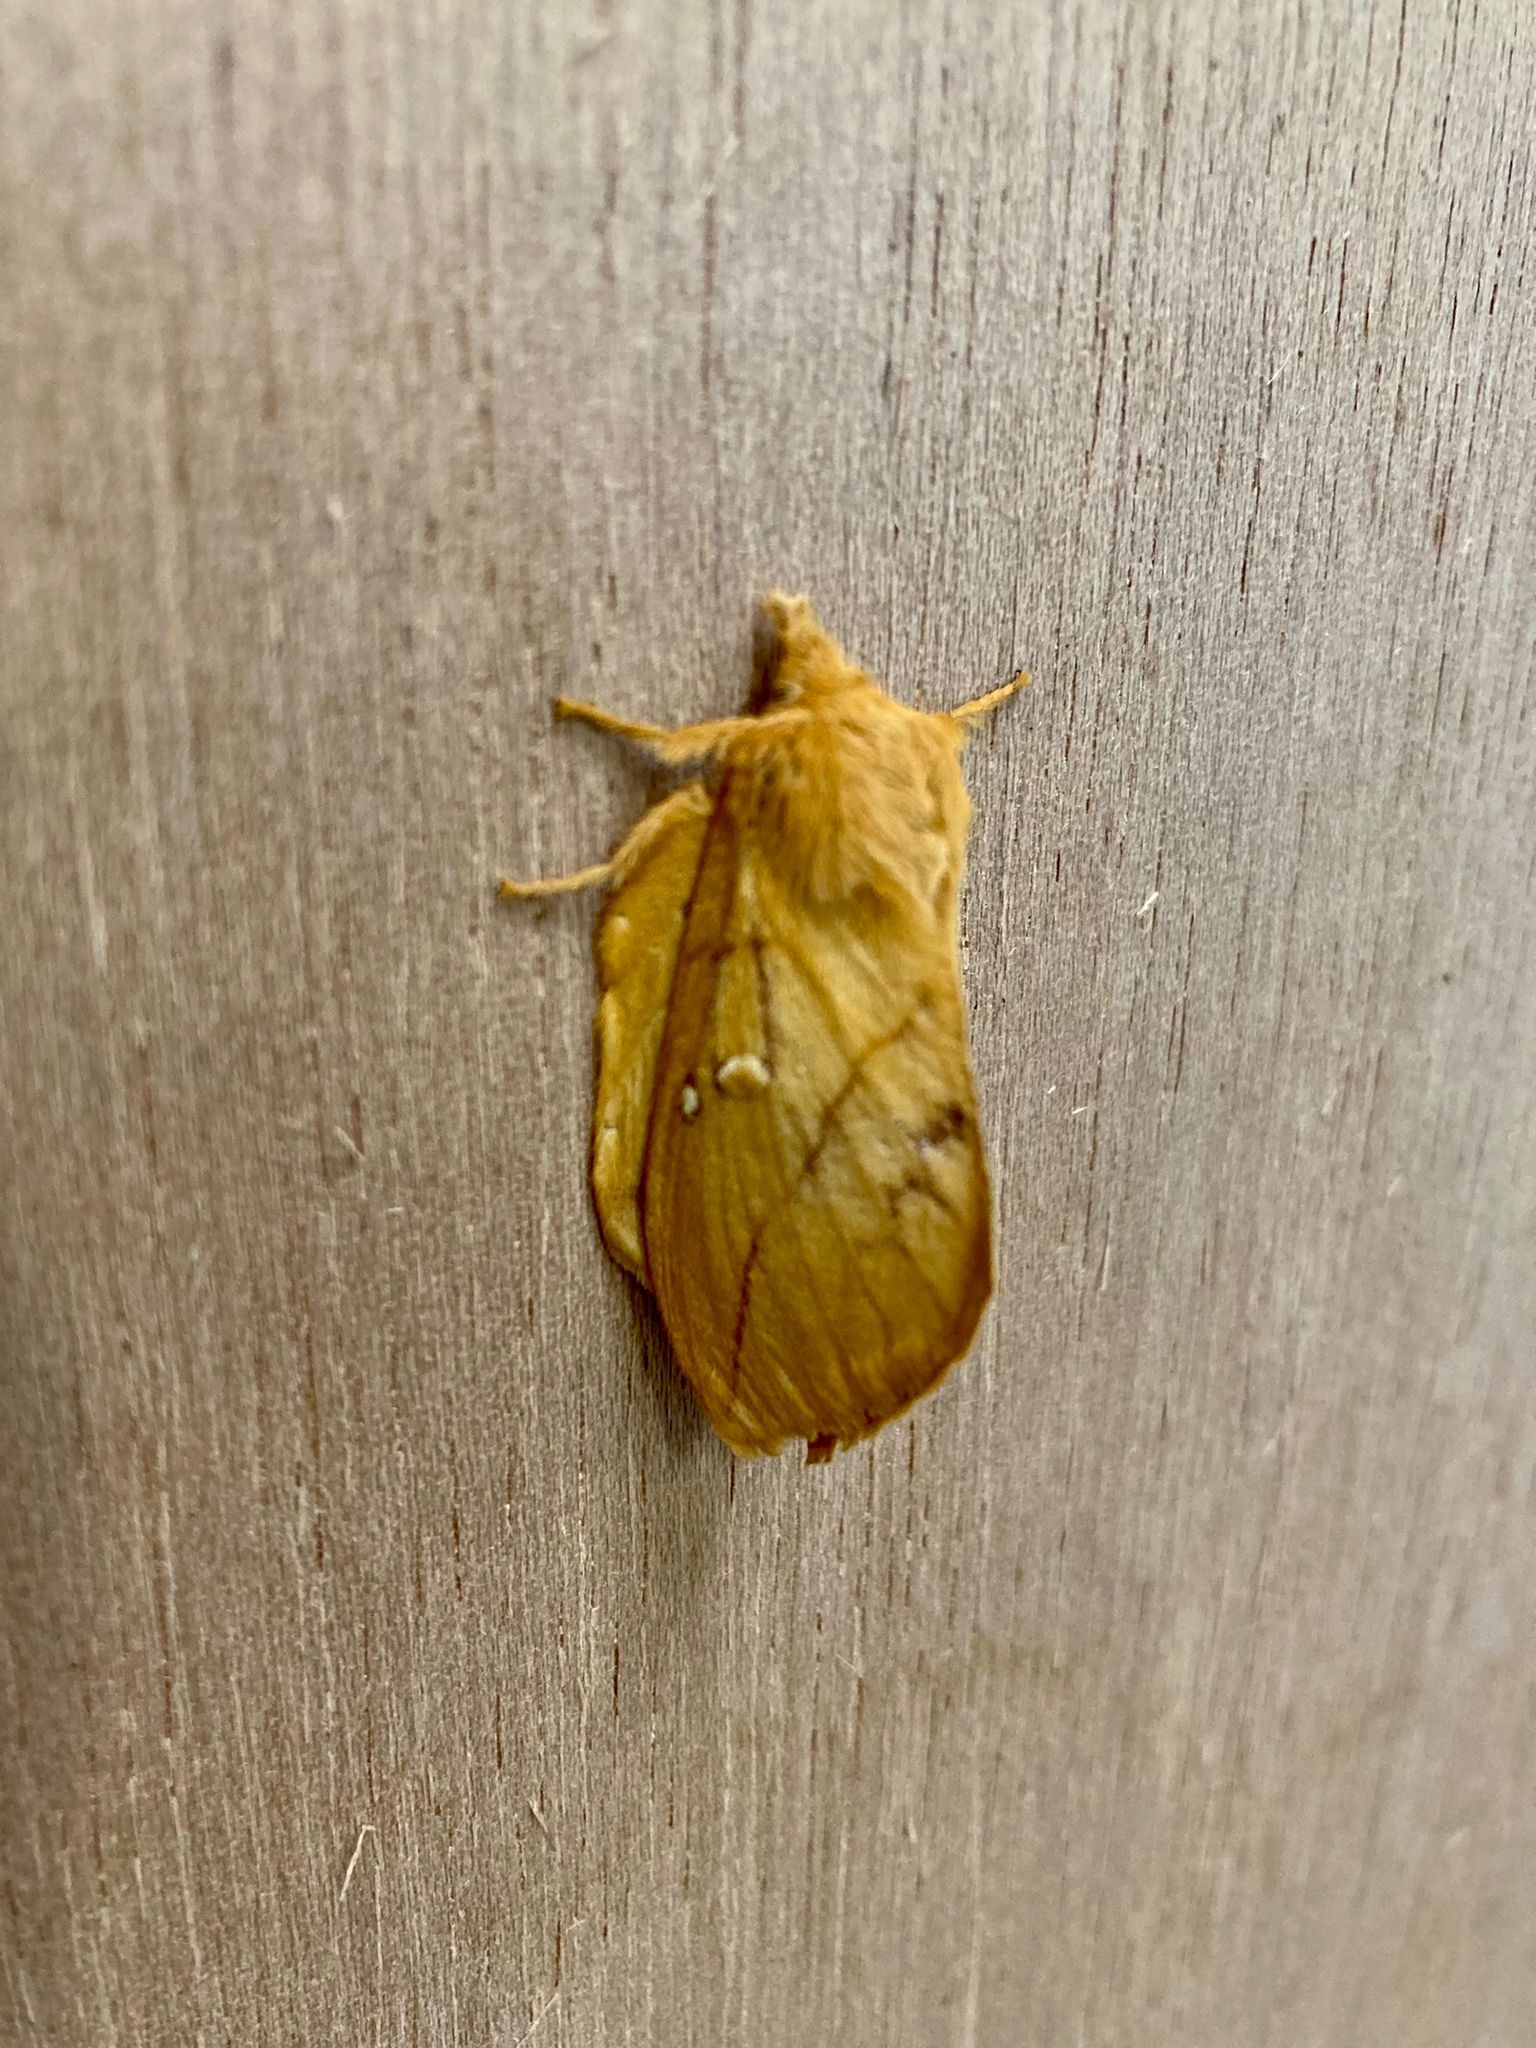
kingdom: Animalia
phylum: Arthropoda
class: Insecta
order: Lepidoptera
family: Lasiocampidae
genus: Euthrix
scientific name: Euthrix potatoria
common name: Drinker
